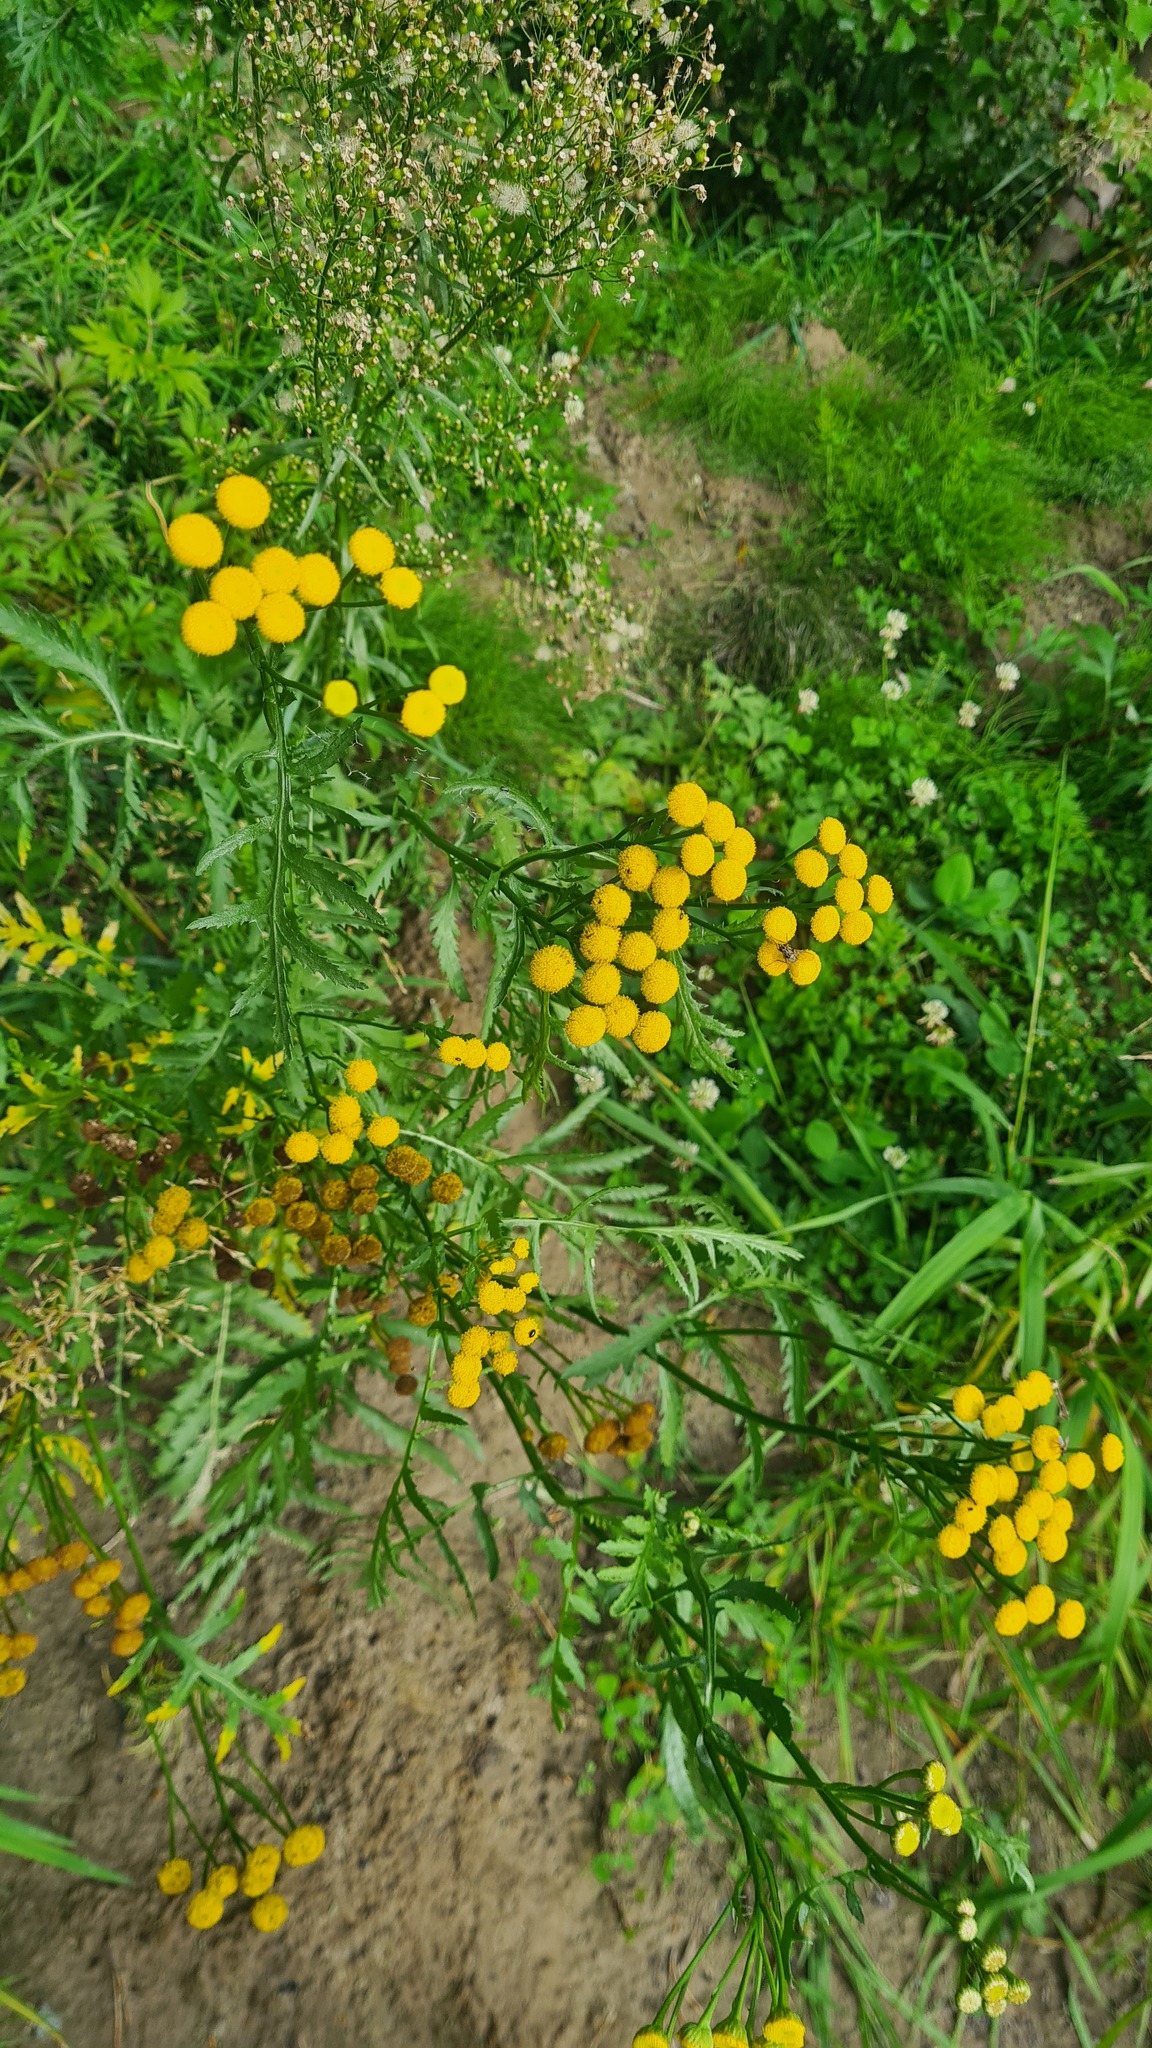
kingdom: Plantae
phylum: Tracheophyta
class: Magnoliopsida
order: Asterales
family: Asteraceae
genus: Tanacetum
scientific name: Tanacetum vulgare
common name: Common tansy
